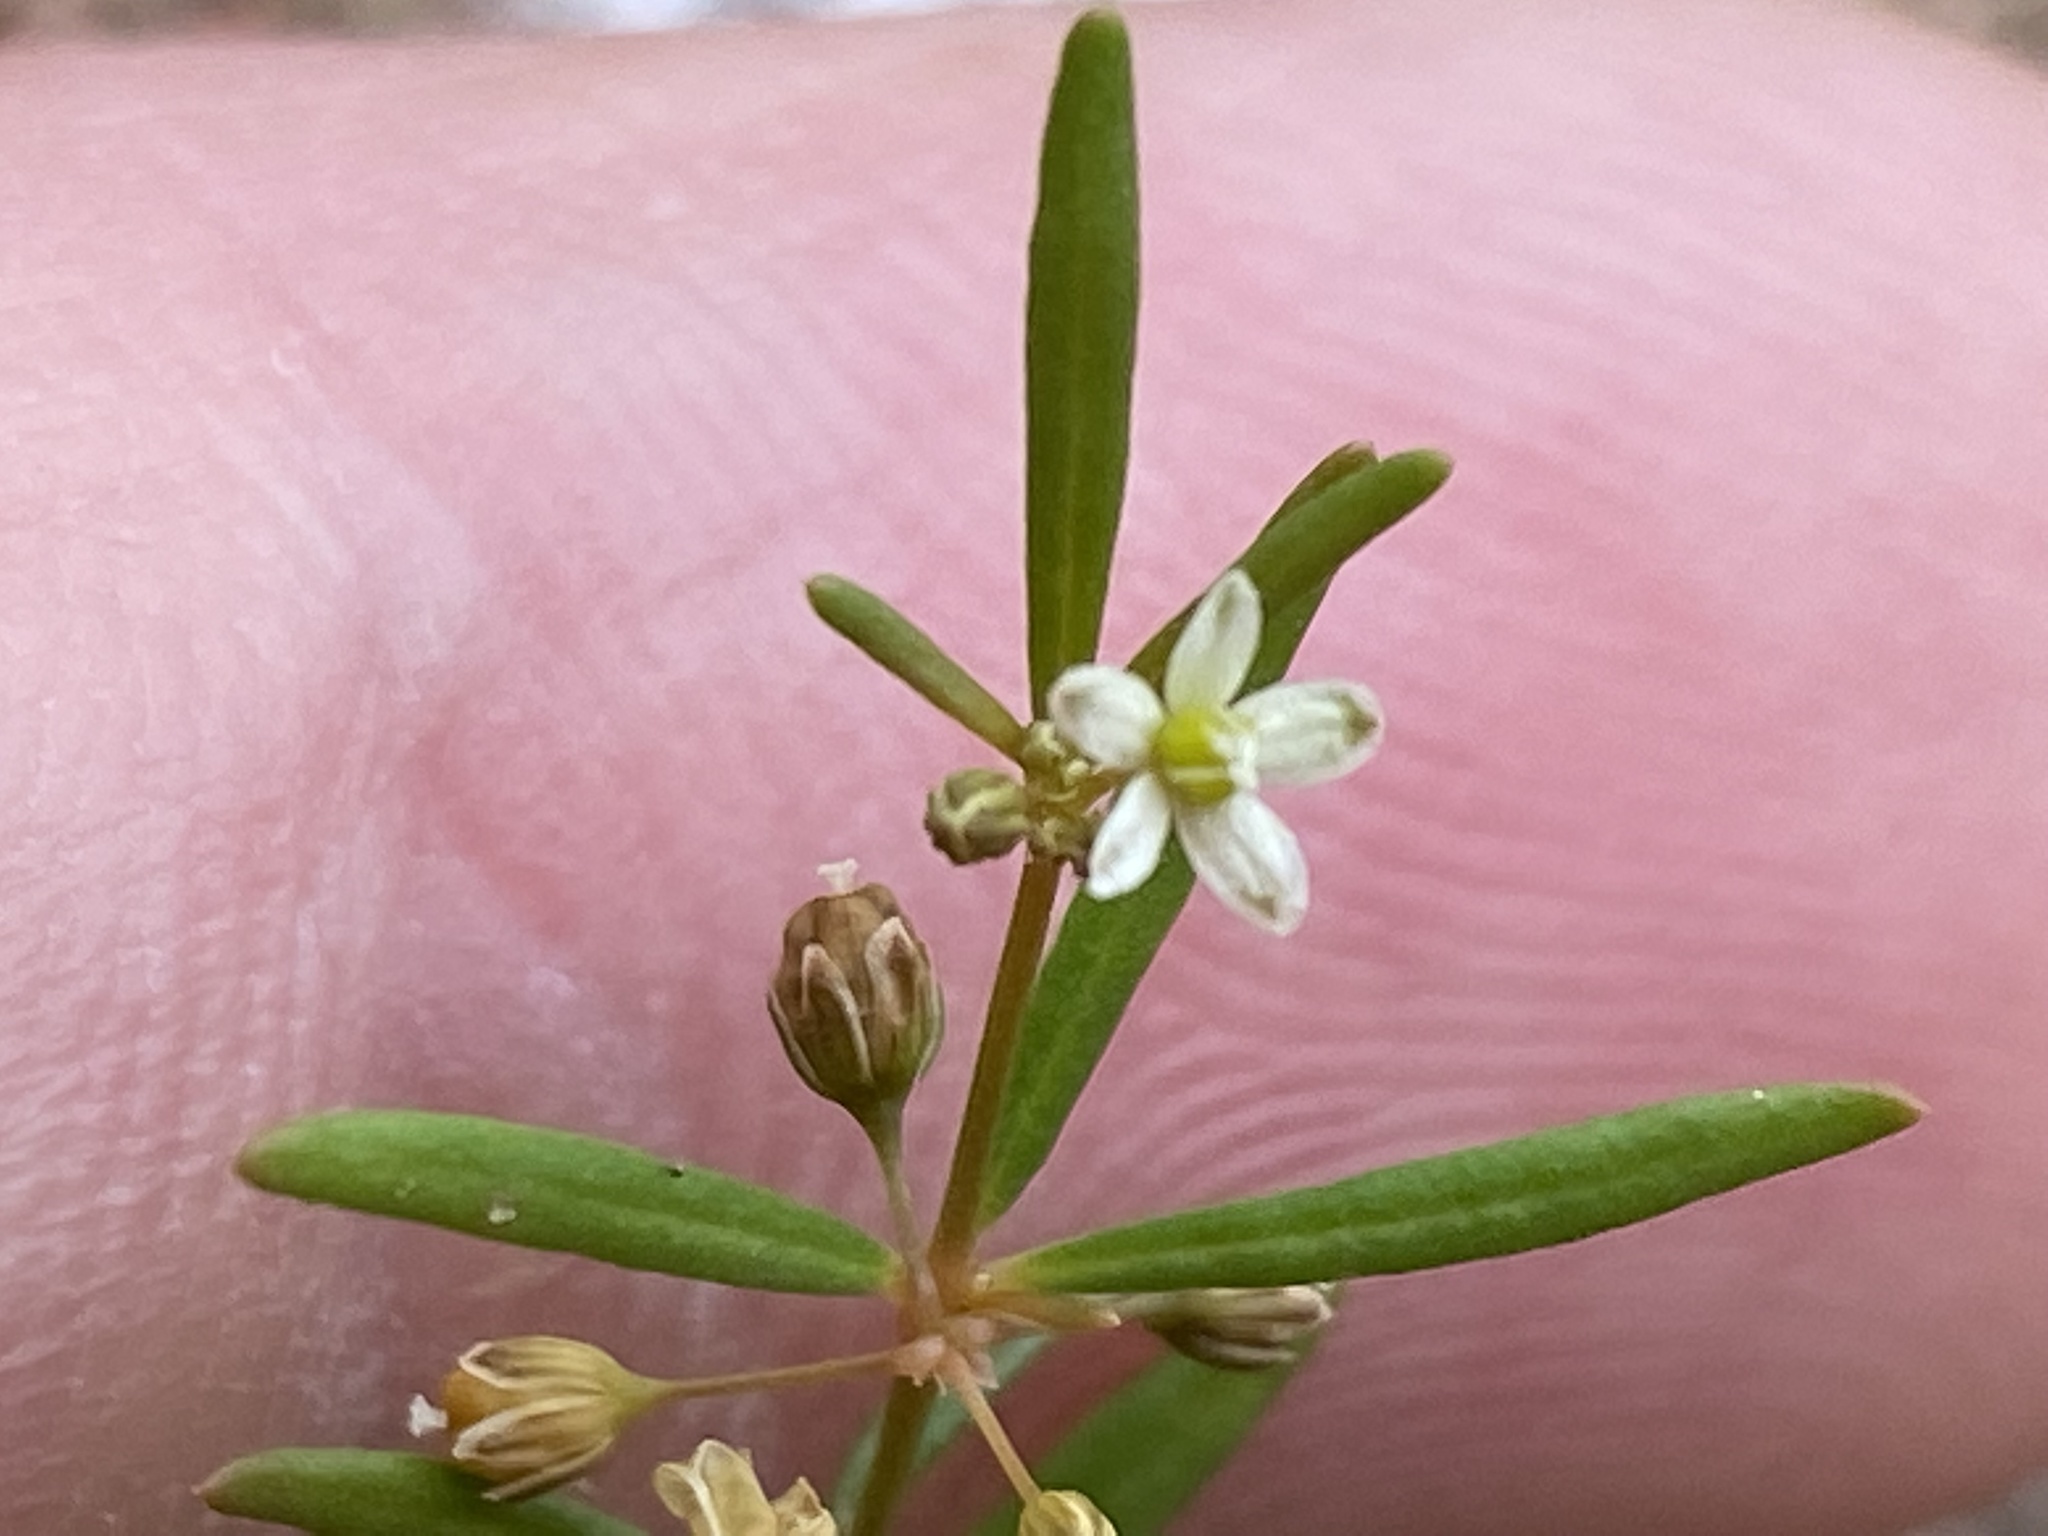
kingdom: Plantae
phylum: Tracheophyta
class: Magnoliopsida
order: Caryophyllales
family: Molluginaceae
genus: Mollugo
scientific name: Mollugo verticillata
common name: Green carpetweed
